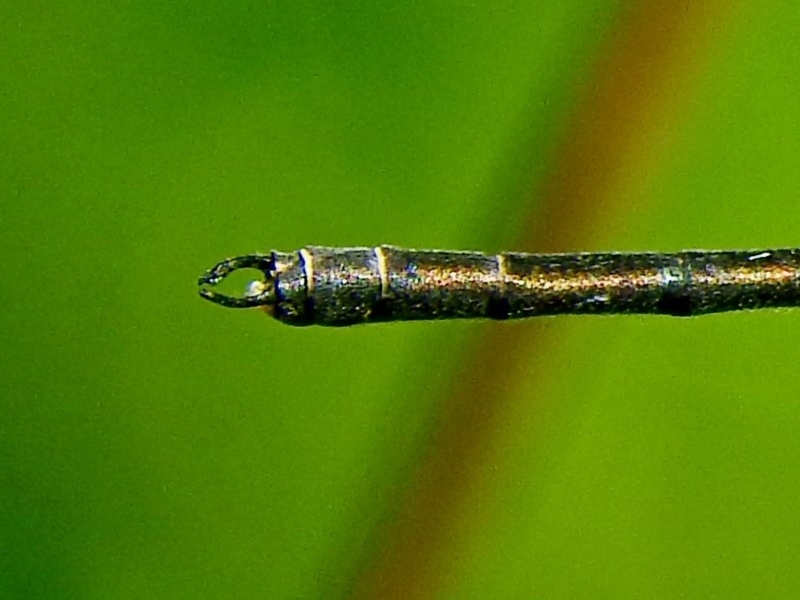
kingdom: Animalia
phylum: Arthropoda
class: Insecta
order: Odonata
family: Argiolestidae
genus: Griseargiolestes
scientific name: Griseargiolestes eboracus
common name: Grey-chested flatwing
